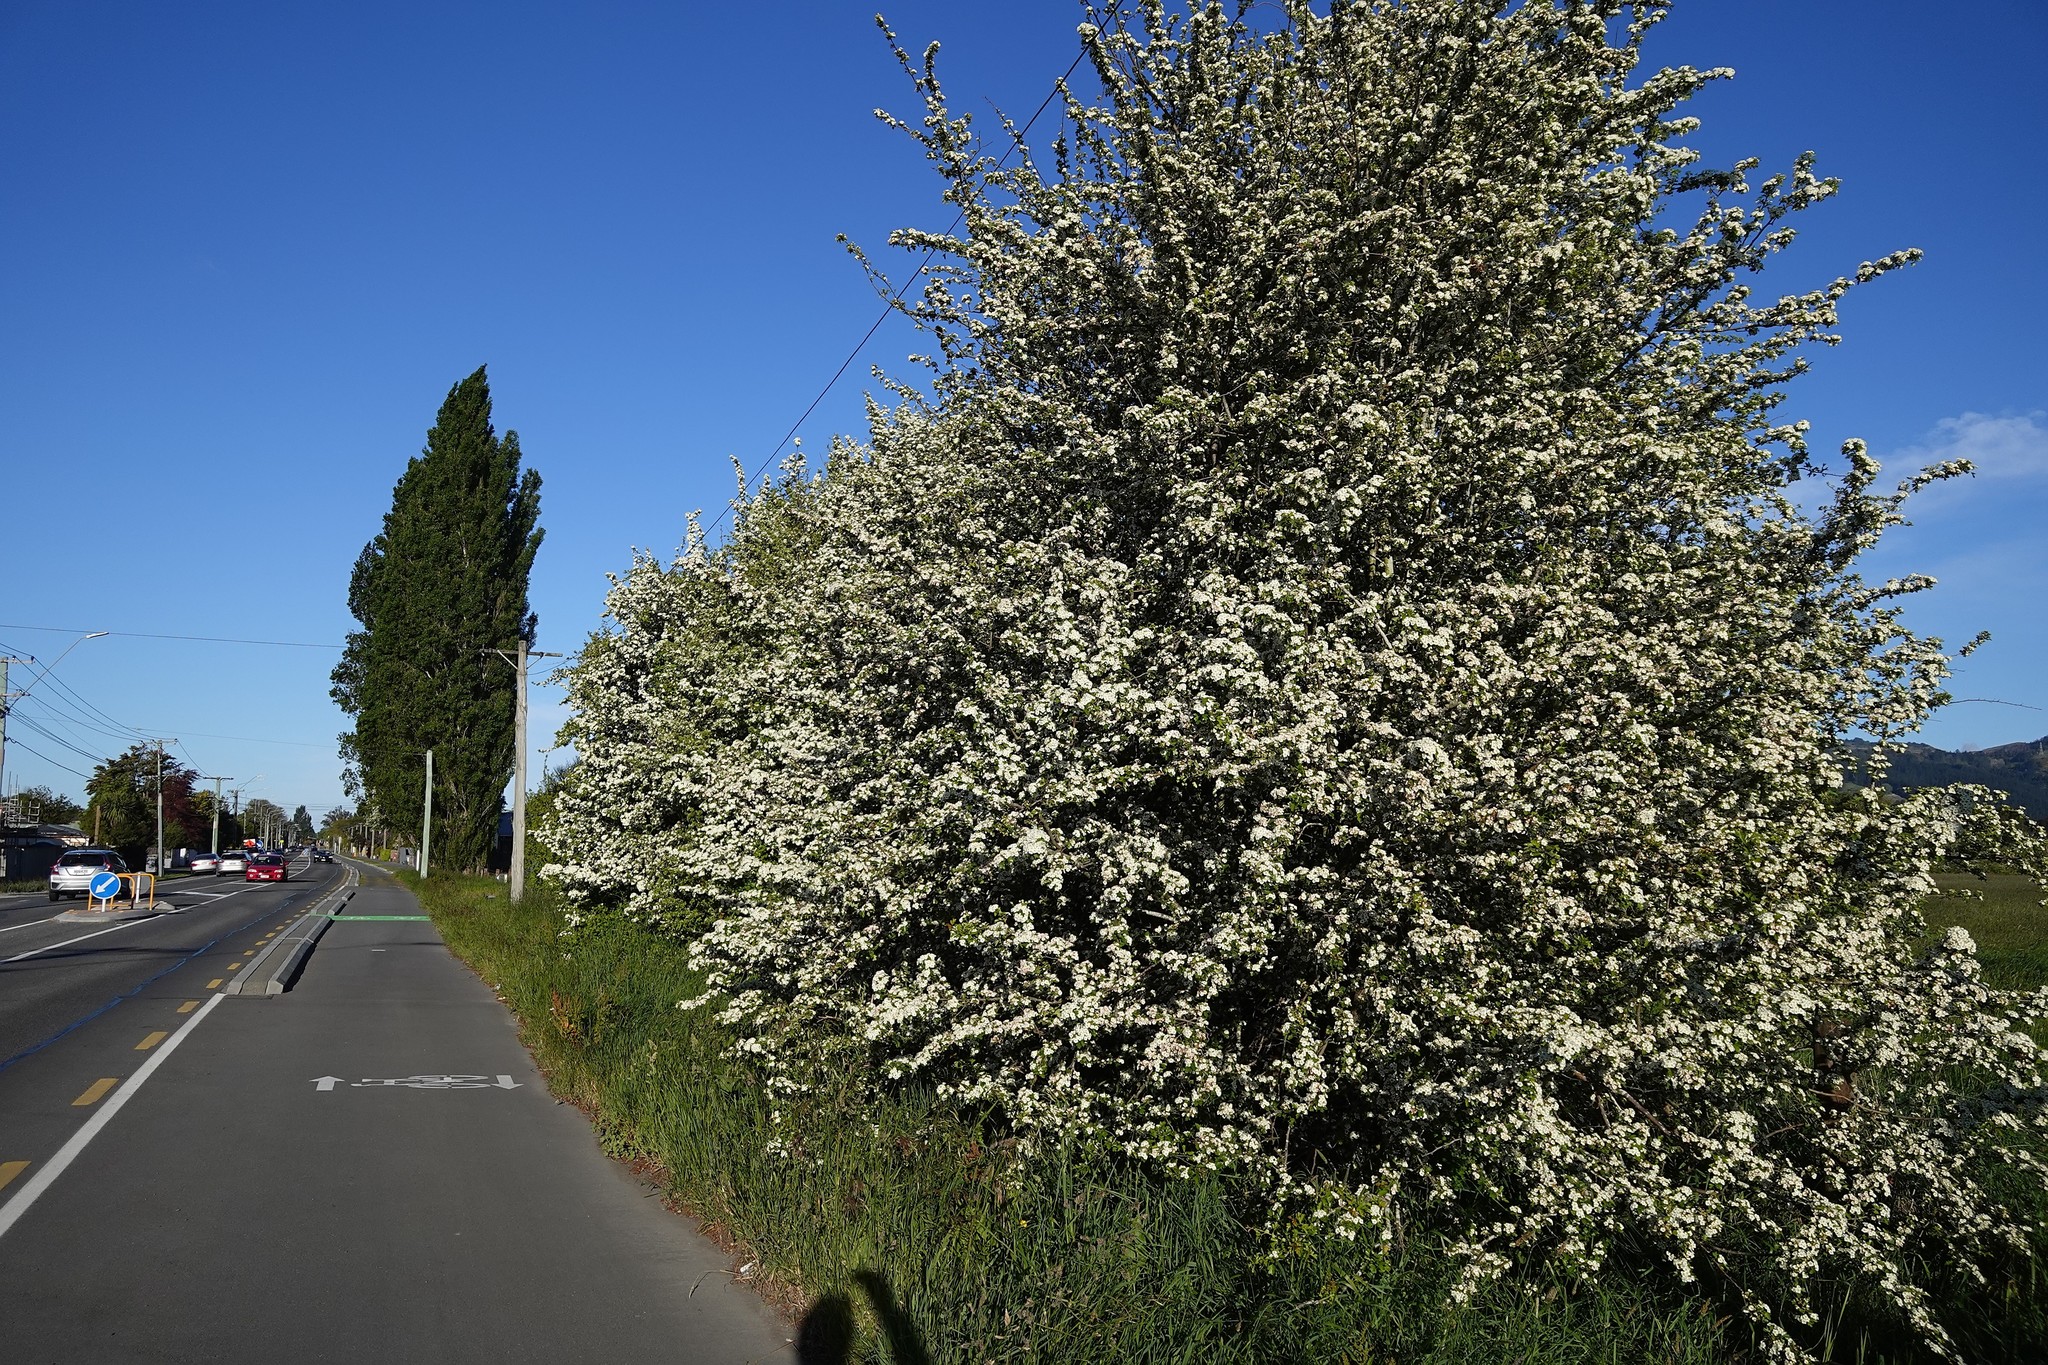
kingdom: Plantae
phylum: Tracheophyta
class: Magnoliopsida
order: Rosales
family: Rosaceae
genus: Crataegus
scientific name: Crataegus monogyna
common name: Hawthorn
